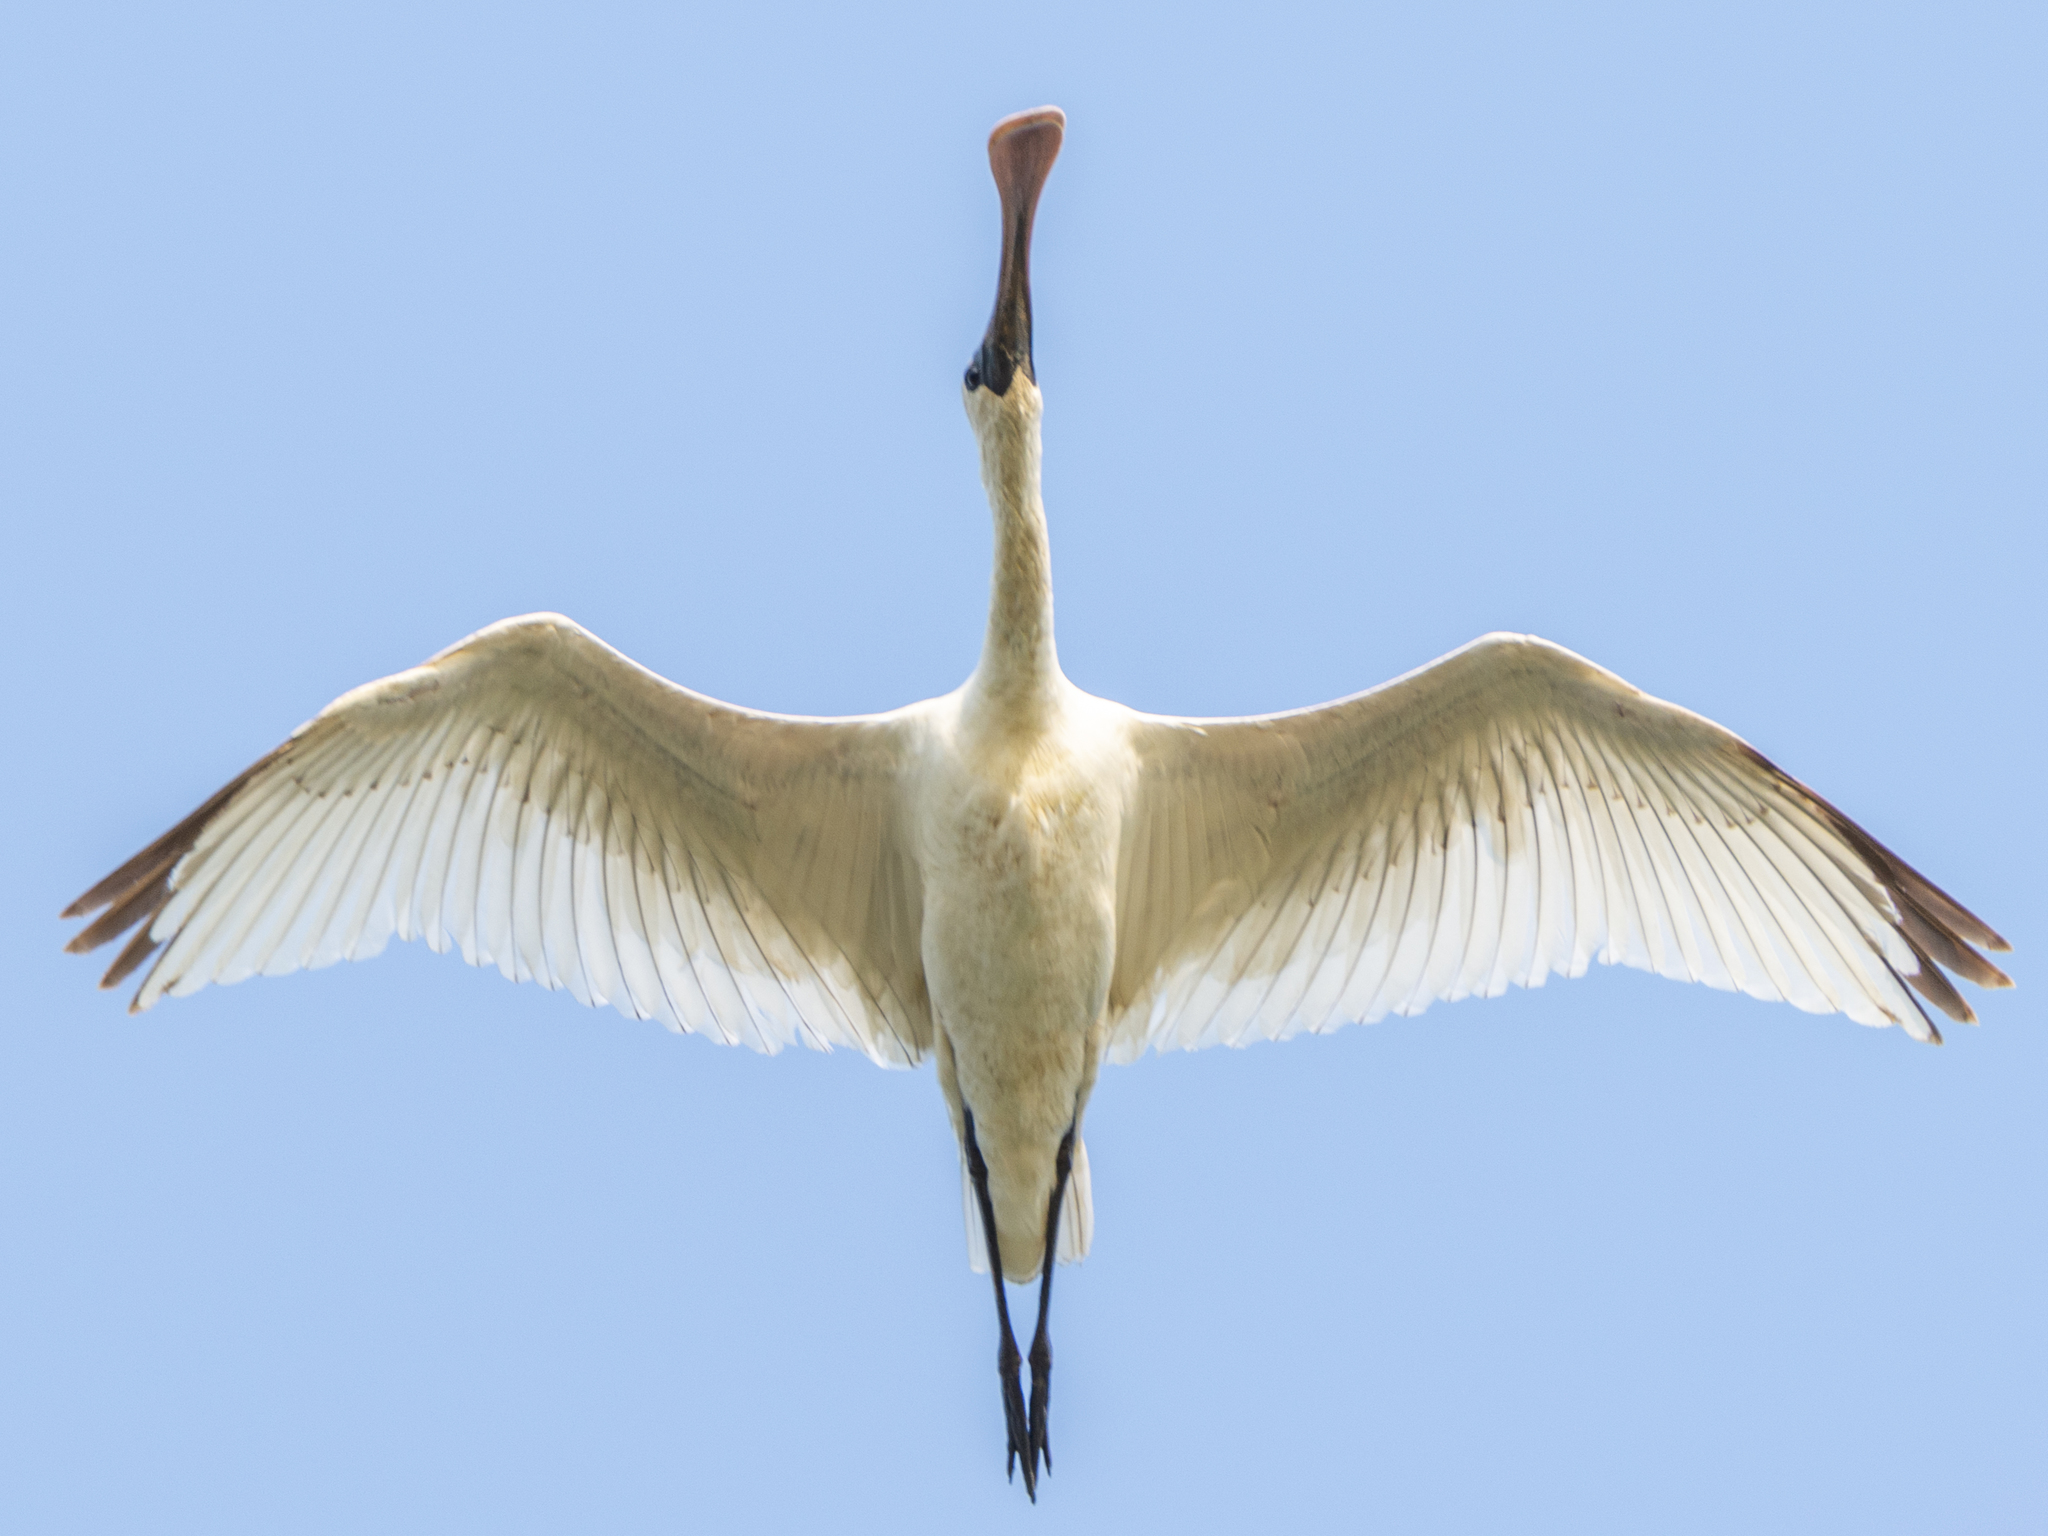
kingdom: Animalia
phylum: Chordata
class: Aves
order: Pelecaniformes
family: Threskiornithidae
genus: Platalea
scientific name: Platalea minor
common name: Black-faced spoonbill
